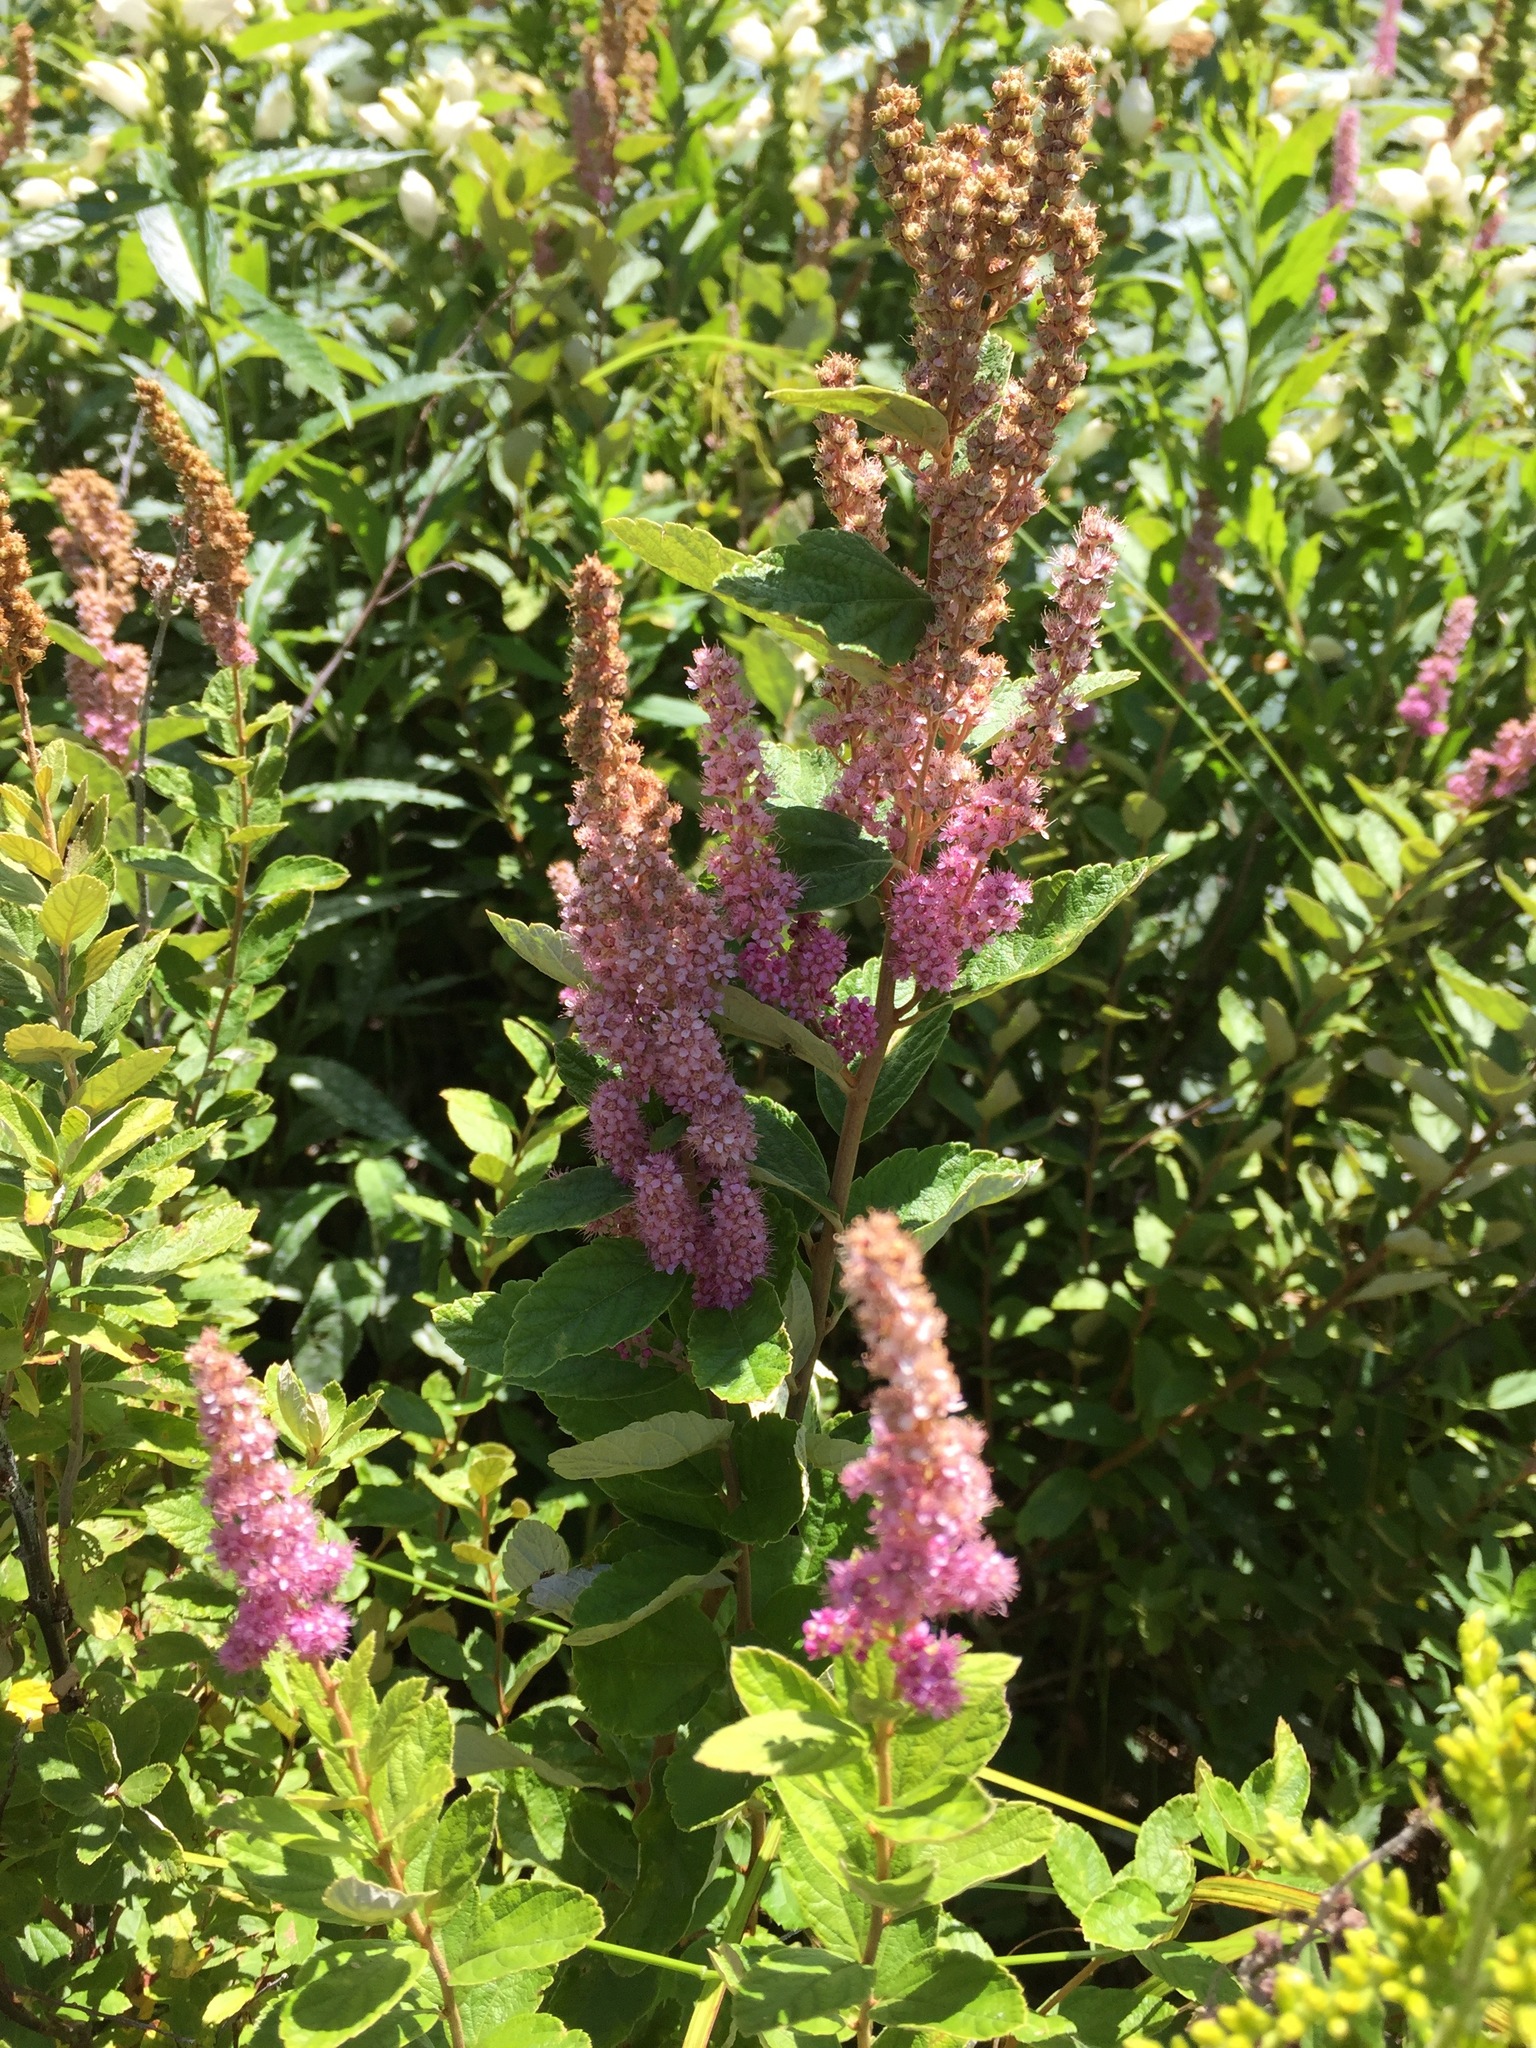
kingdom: Plantae
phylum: Tracheophyta
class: Magnoliopsida
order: Rosales
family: Rosaceae
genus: Spiraea
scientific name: Spiraea tomentosa
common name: Hardhack
